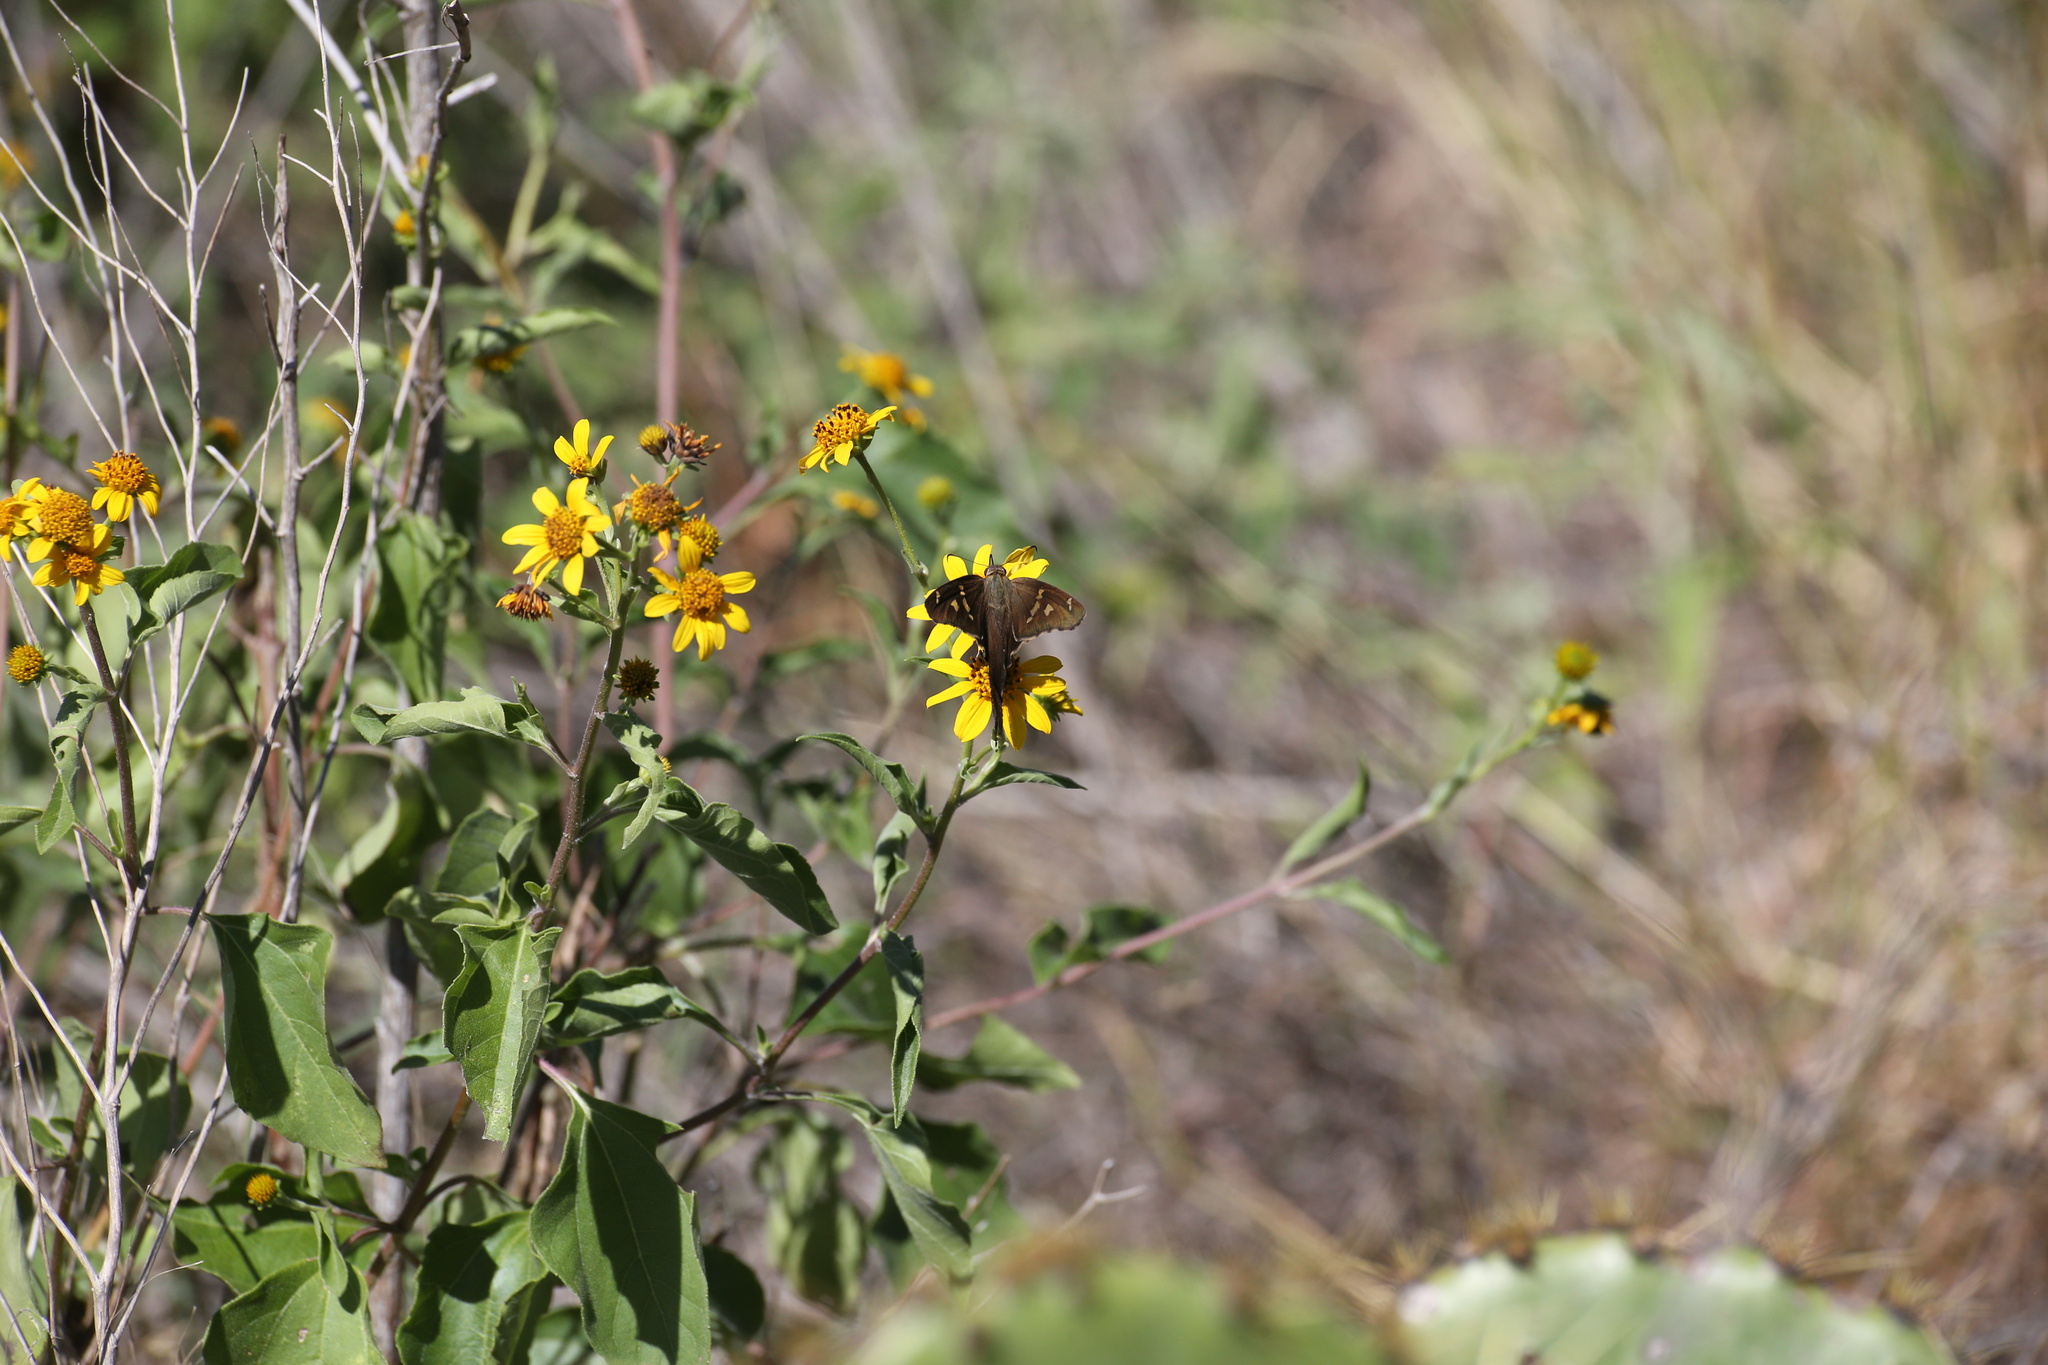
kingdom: Animalia
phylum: Arthropoda
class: Insecta
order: Lepidoptera
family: Hesperiidae
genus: Chioides
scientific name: Chioides catillus
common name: Silverbanded skipper
